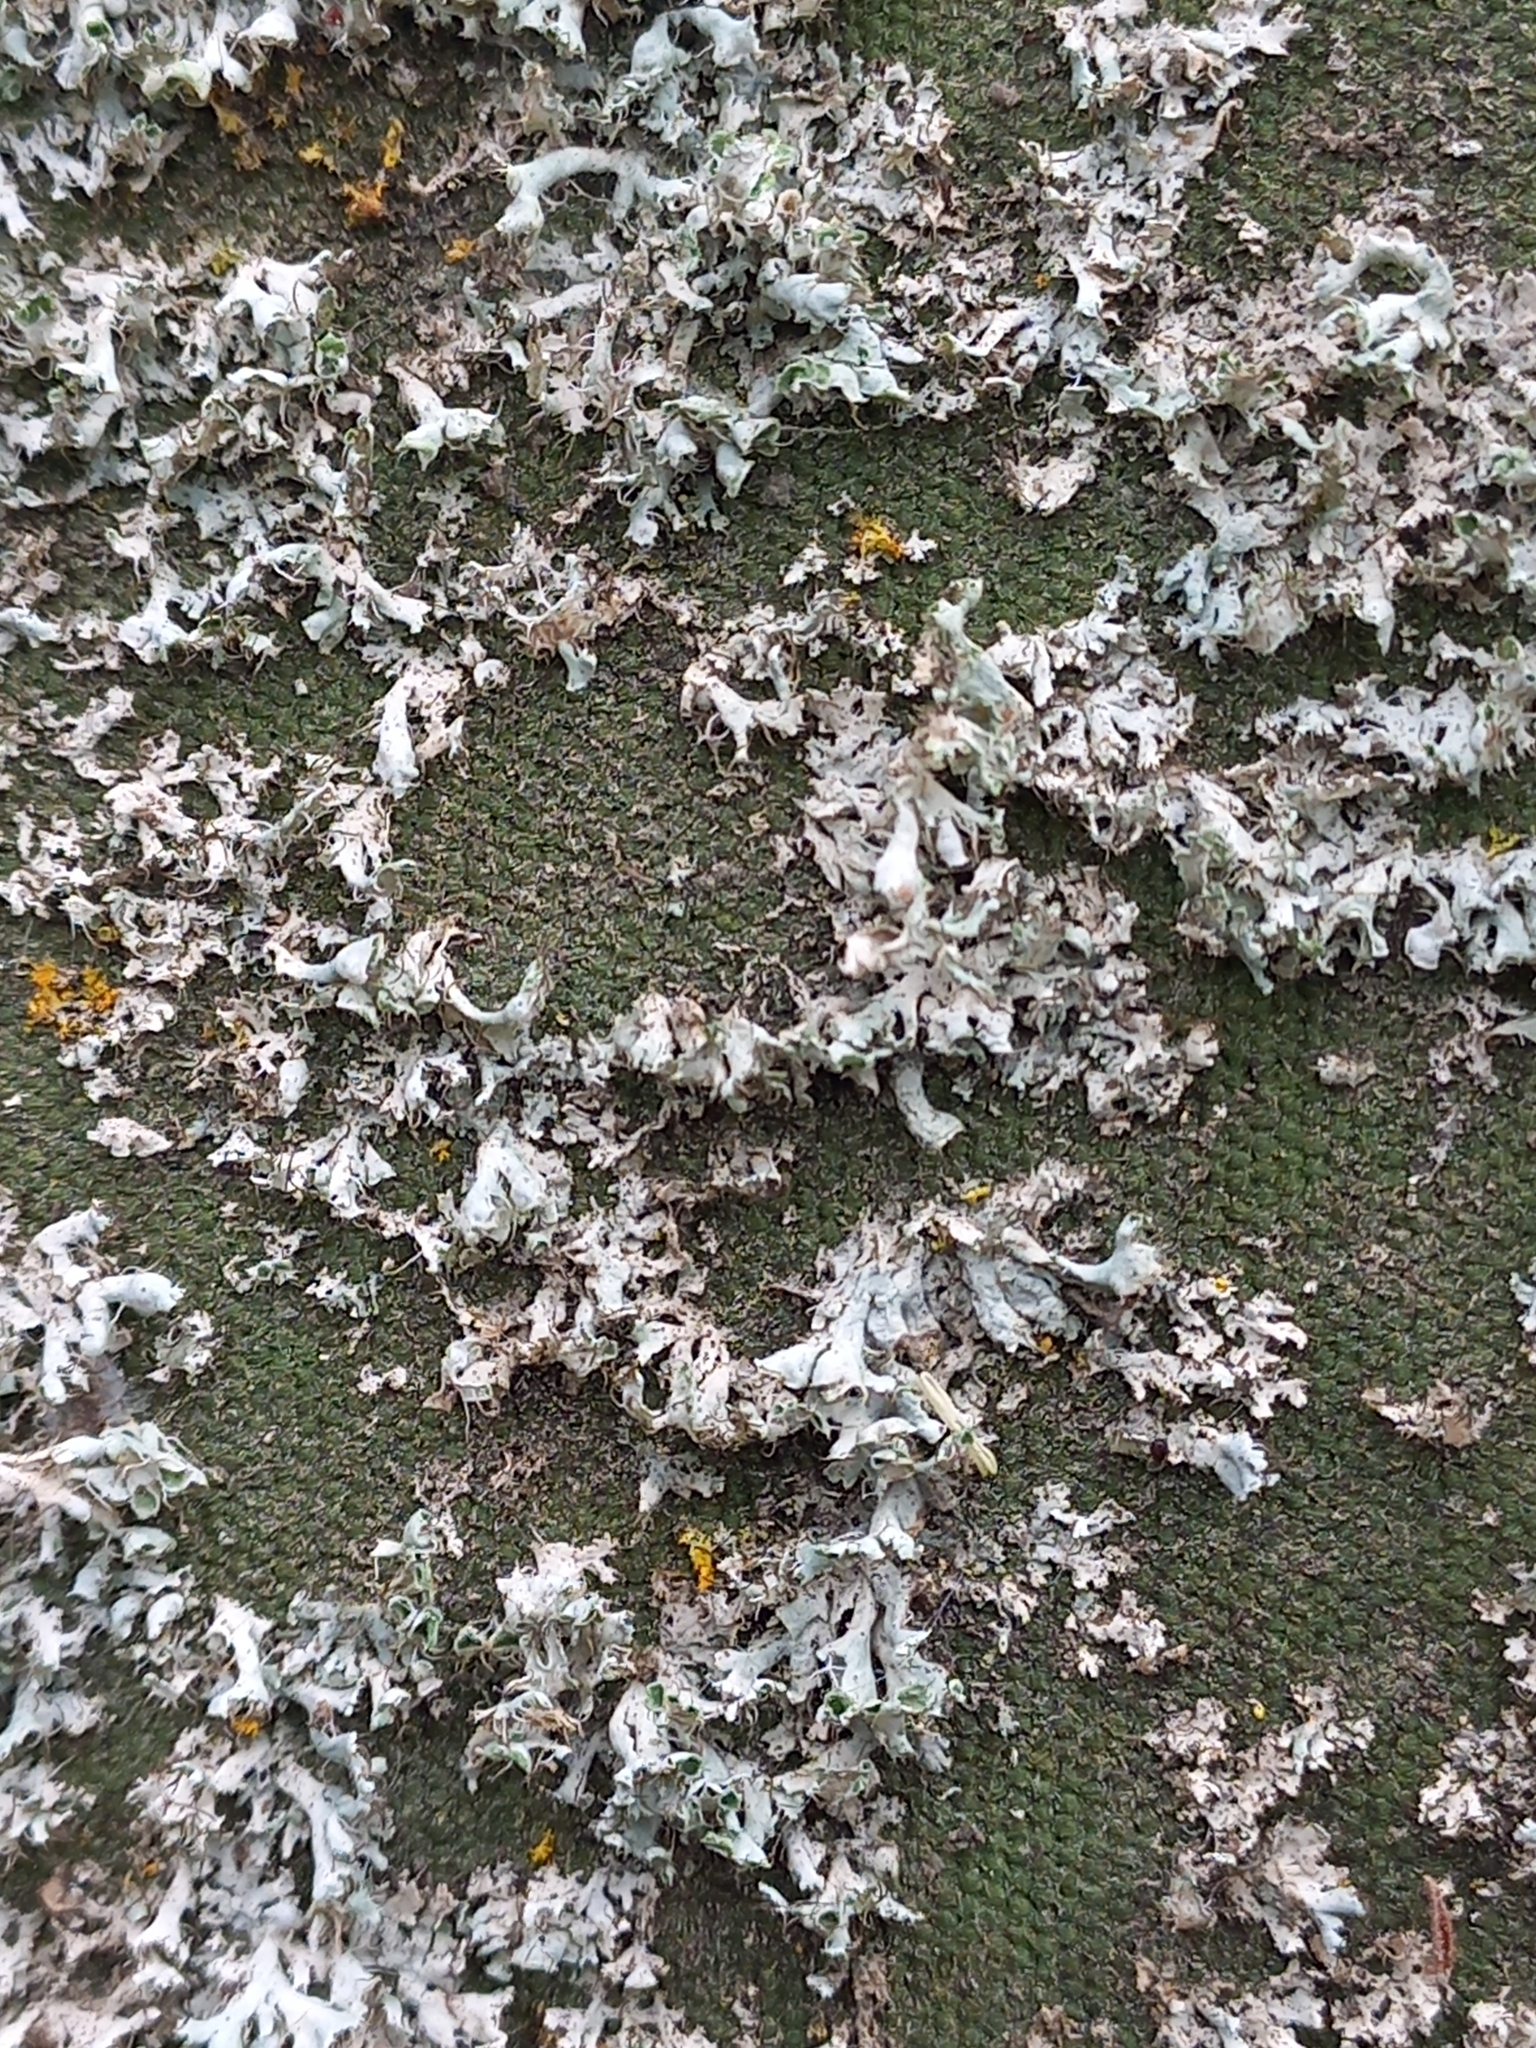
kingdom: Fungi
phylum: Ascomycota
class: Lecanoromycetes
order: Caliciales
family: Physciaceae
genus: Physcia
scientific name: Physcia adscendens
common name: Hooded rosette lichen
